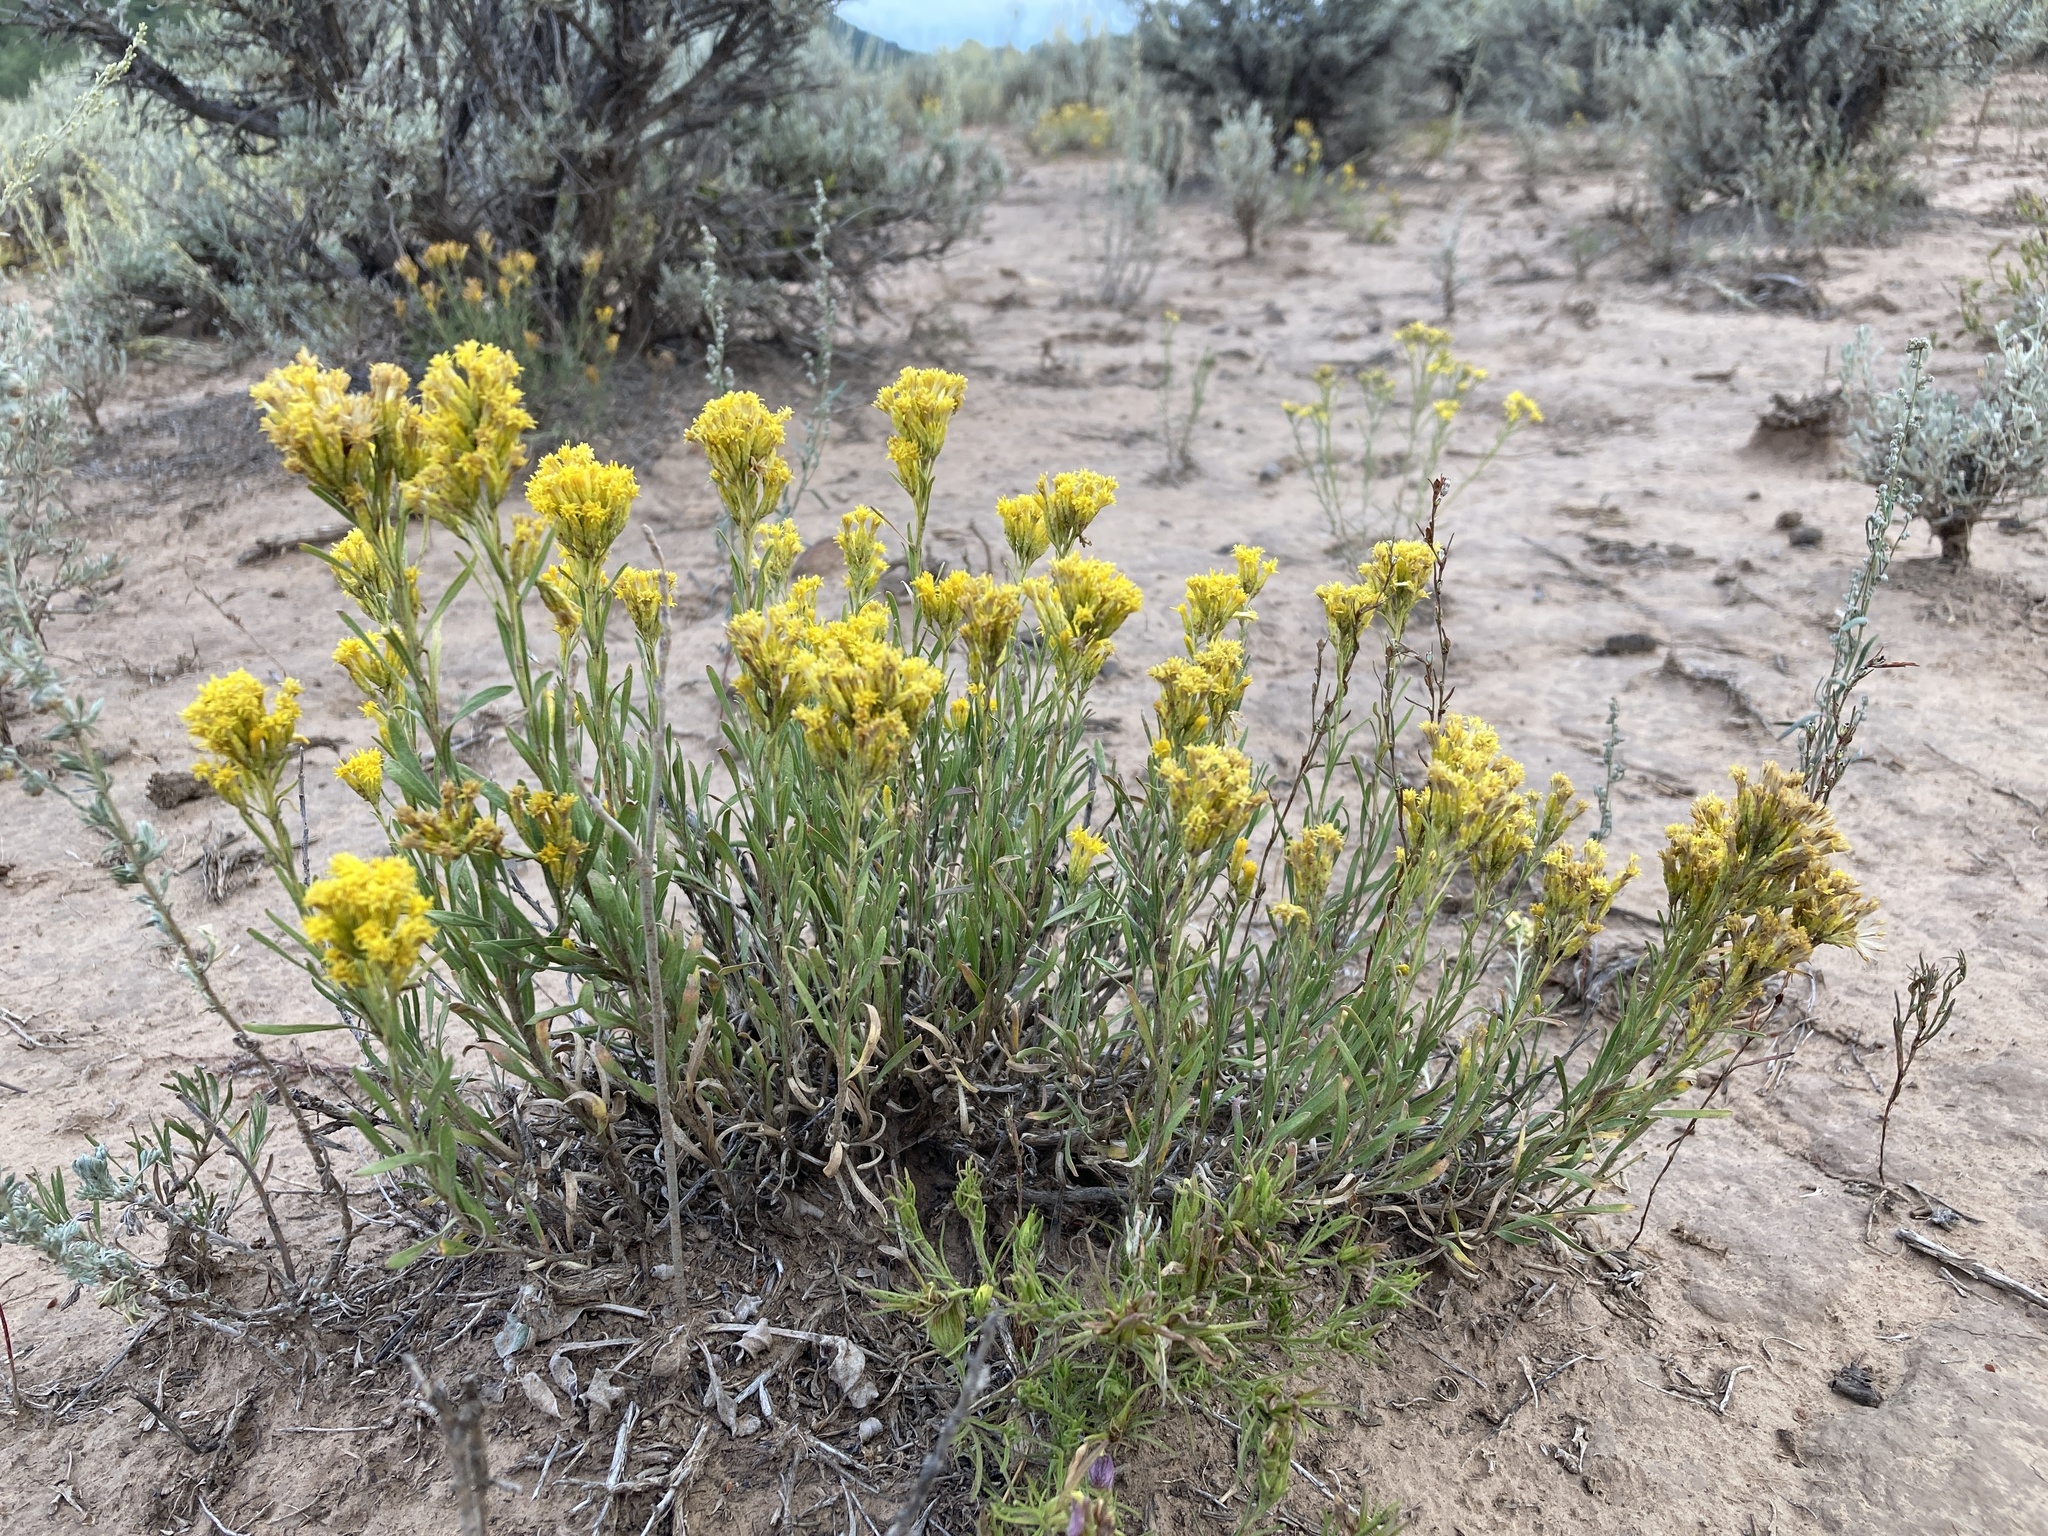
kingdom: Plantae
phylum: Tracheophyta
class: Magnoliopsida
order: Asterales
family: Asteraceae
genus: Chrysothamnus
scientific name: Chrysothamnus vaseyi
